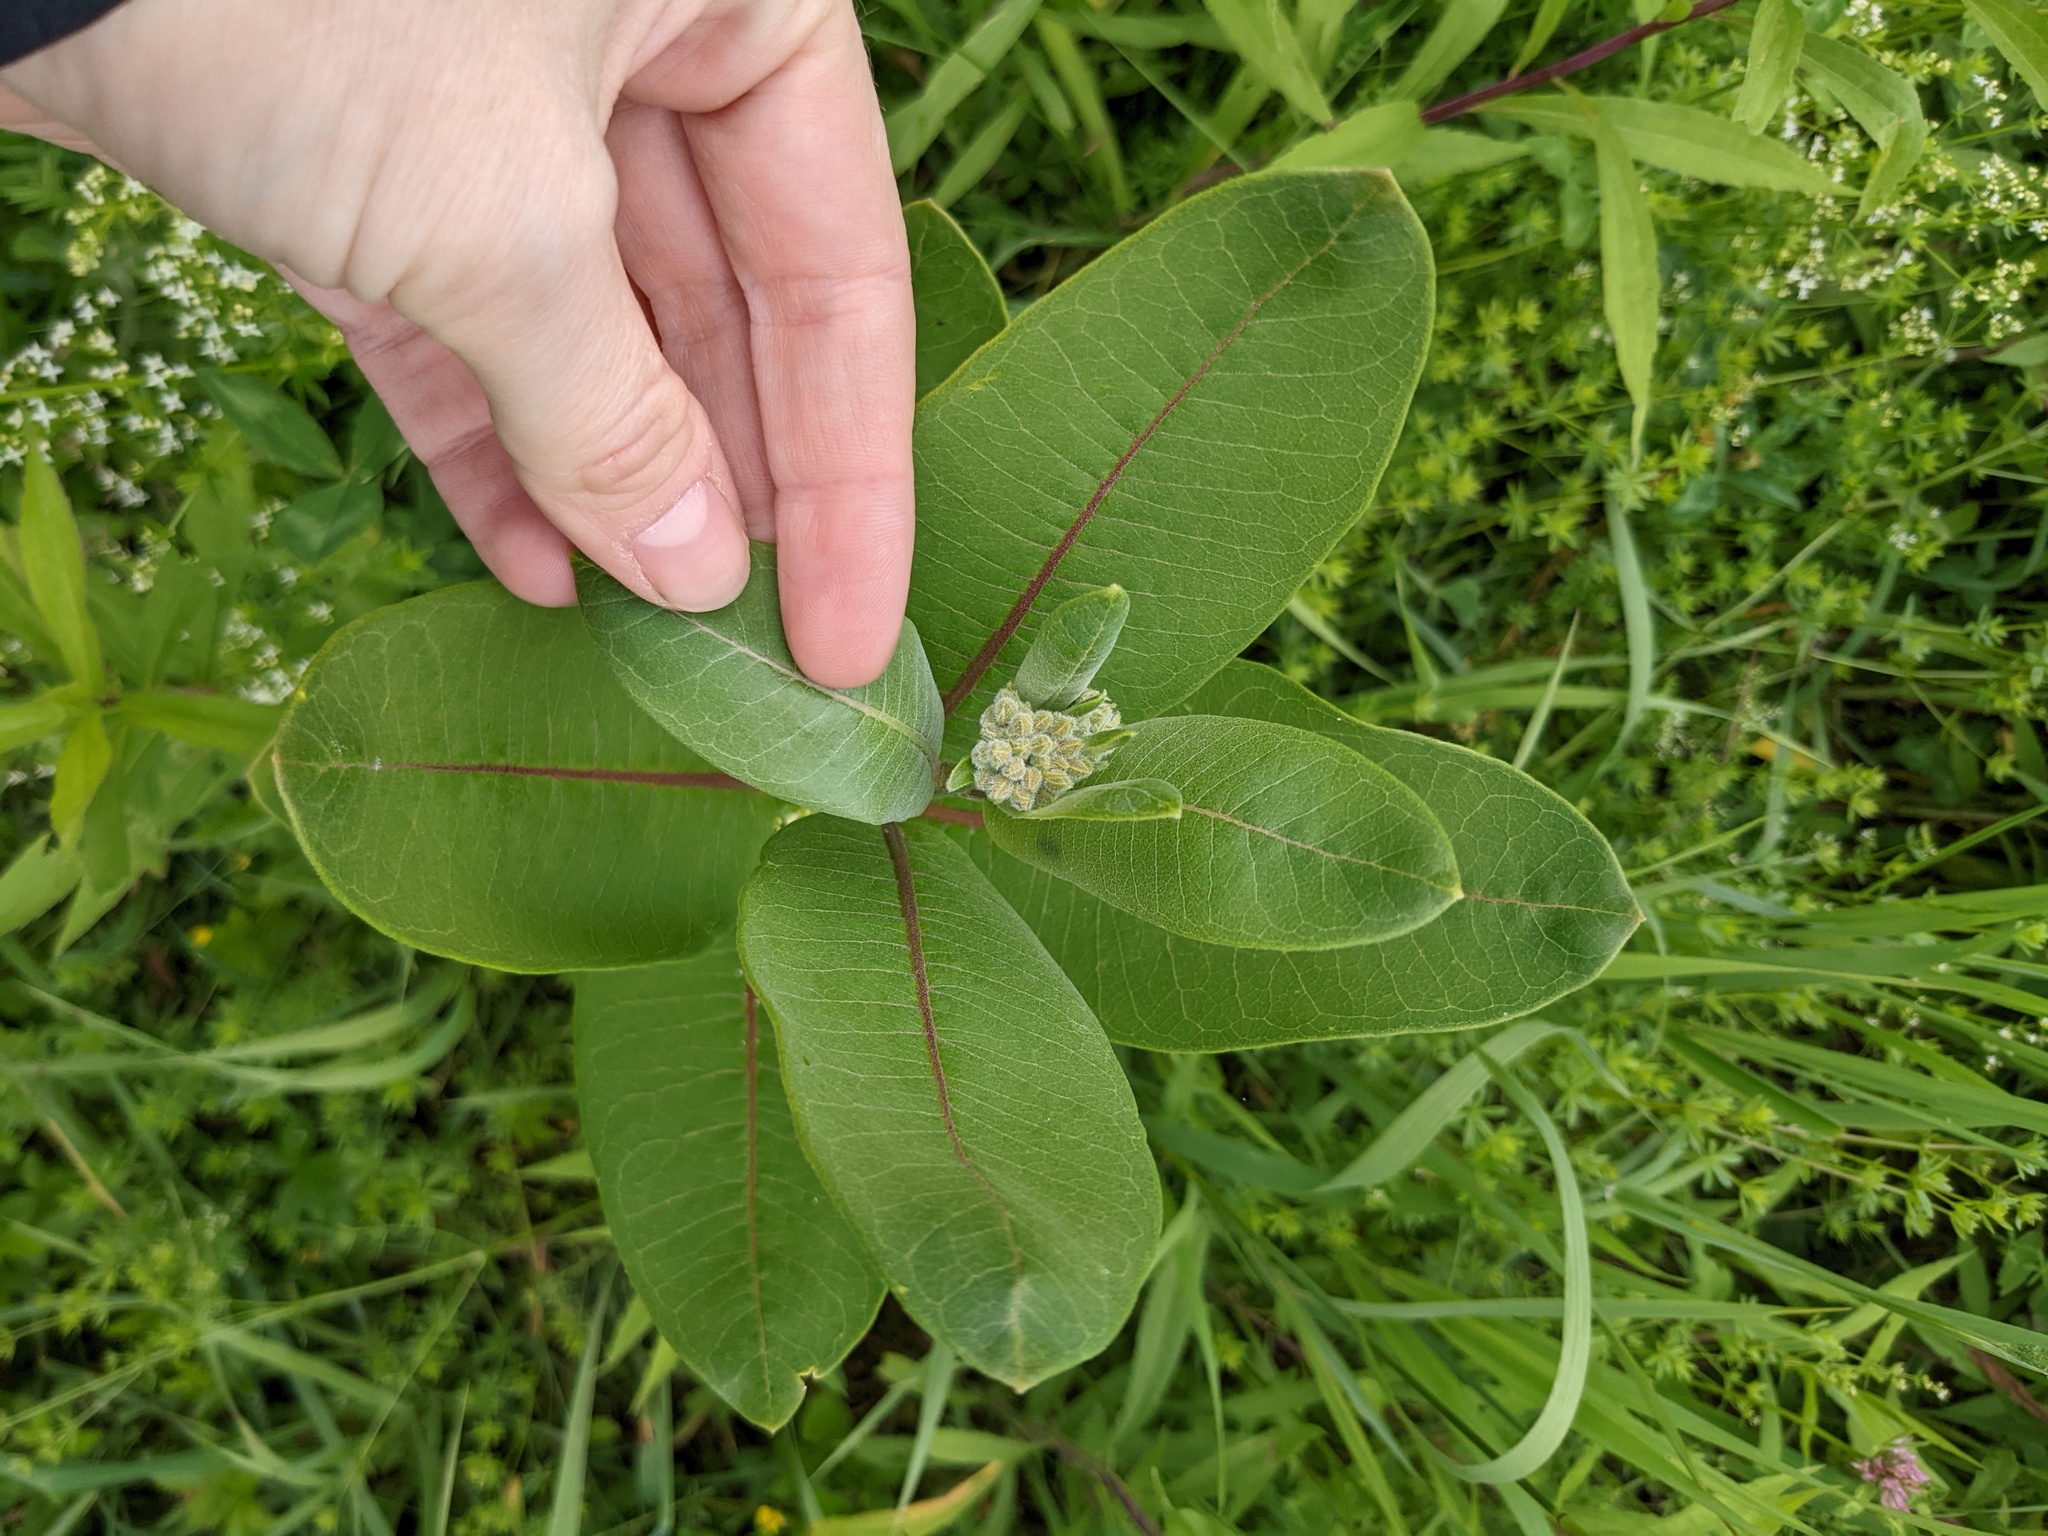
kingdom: Plantae
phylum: Tracheophyta
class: Magnoliopsida
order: Gentianales
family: Apocynaceae
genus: Asclepias
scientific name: Asclepias syriaca
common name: Common milkweed
